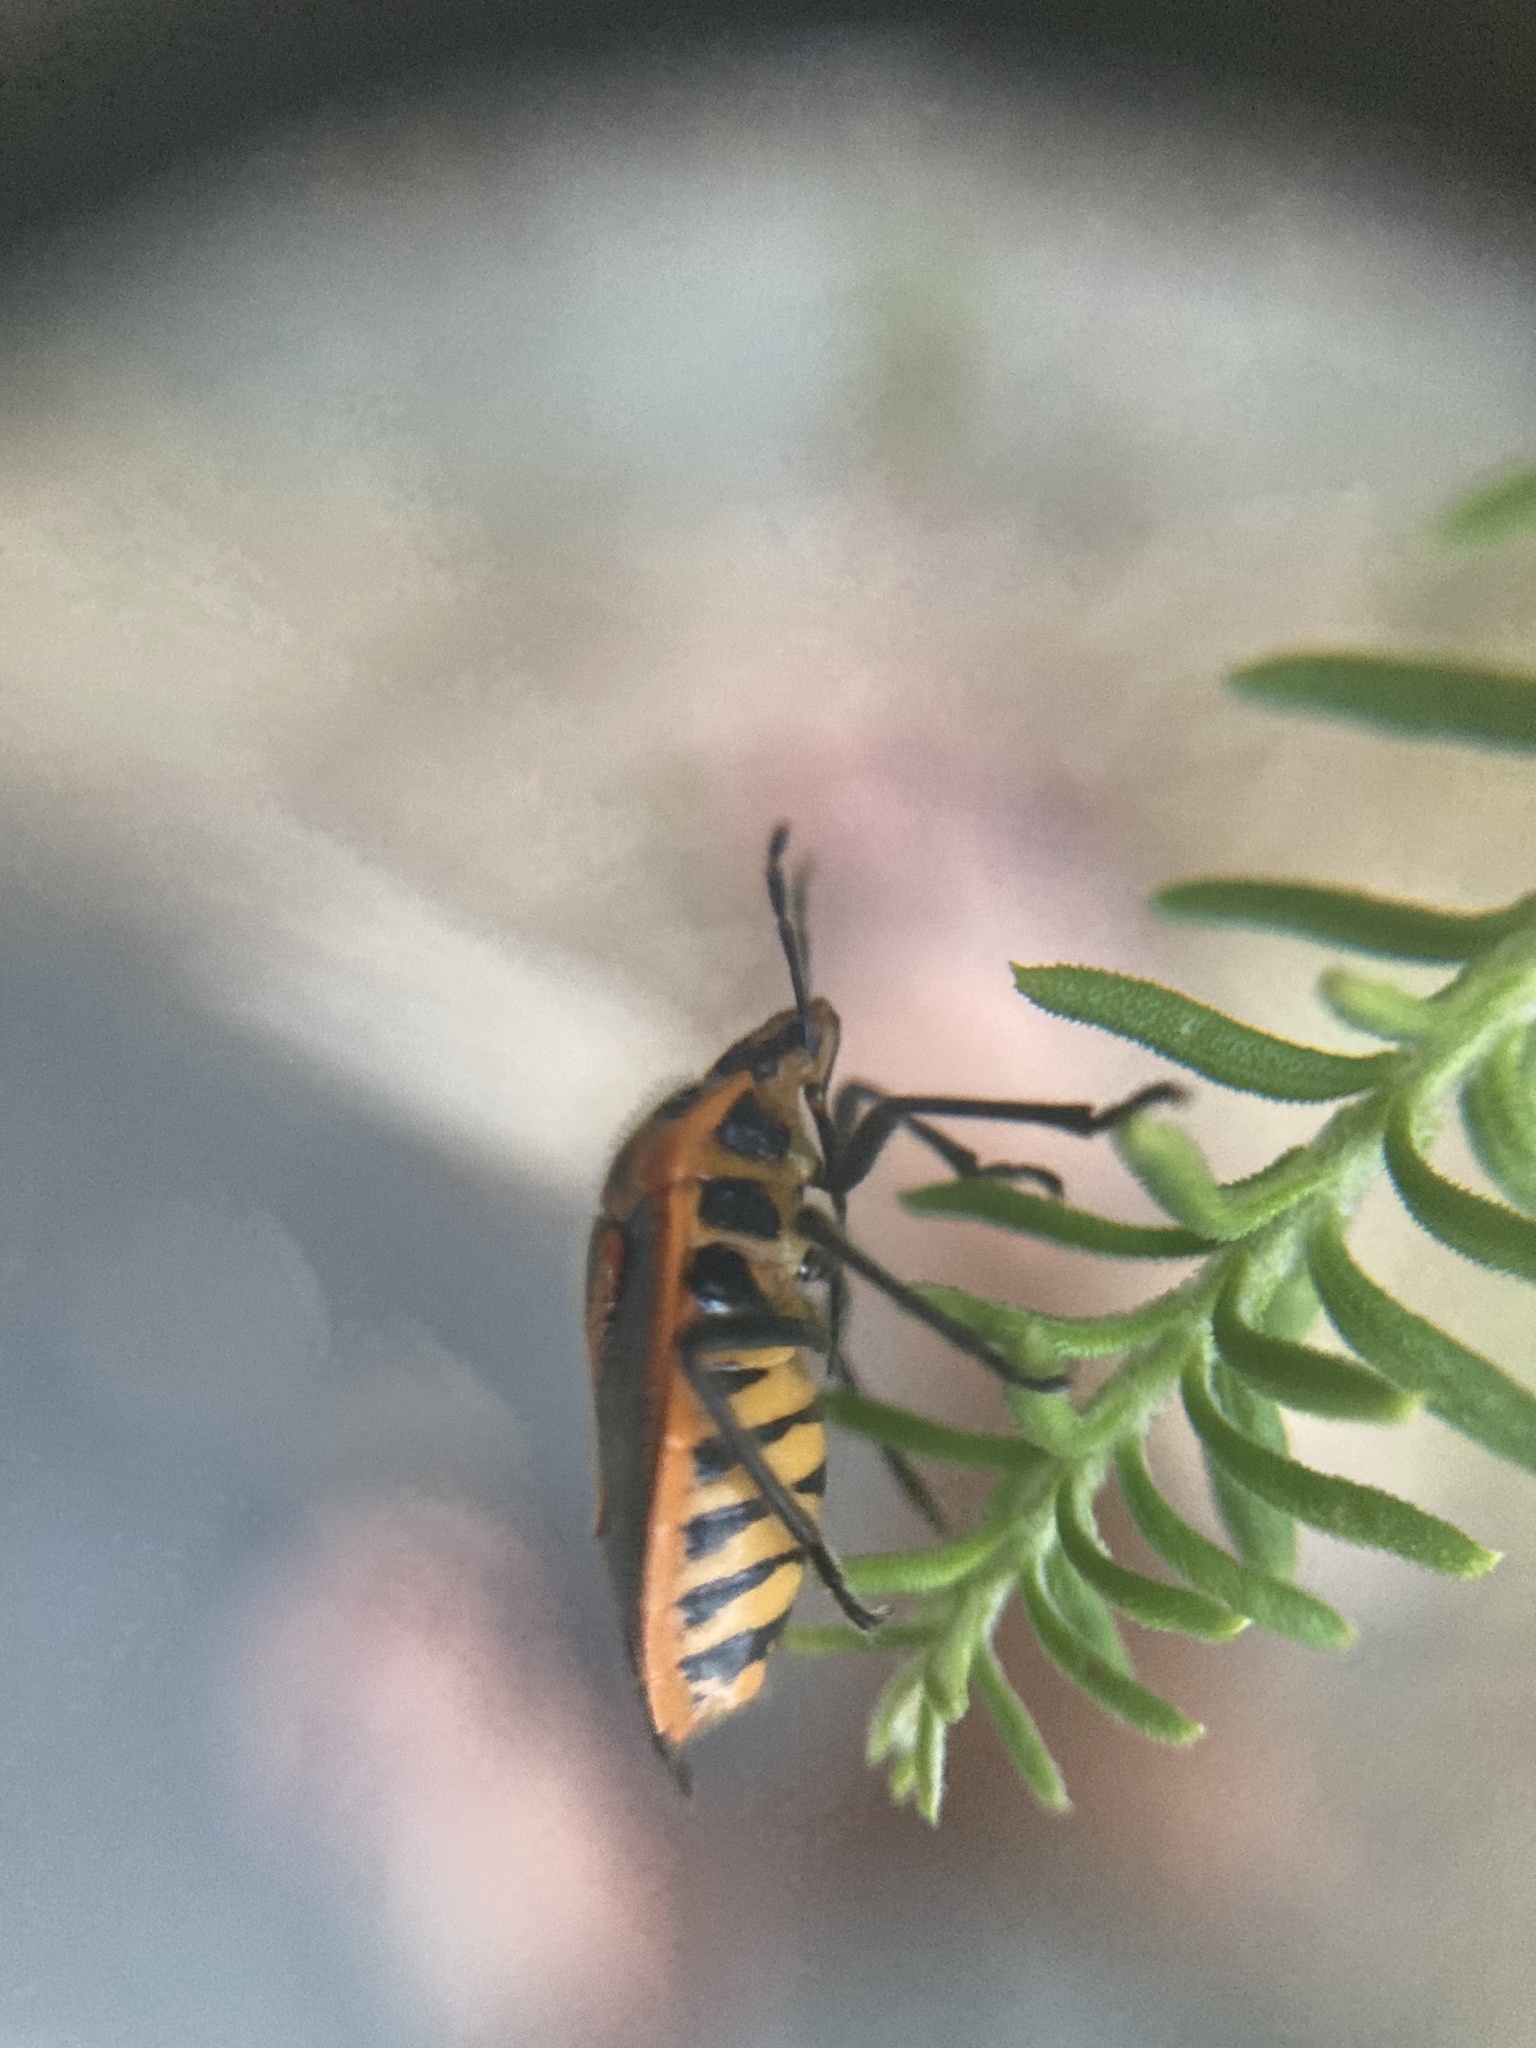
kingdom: Animalia
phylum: Arthropoda
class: Insecta
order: Hemiptera
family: Pentatomidae
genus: Agonoscelis
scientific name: Agonoscelis rutila
